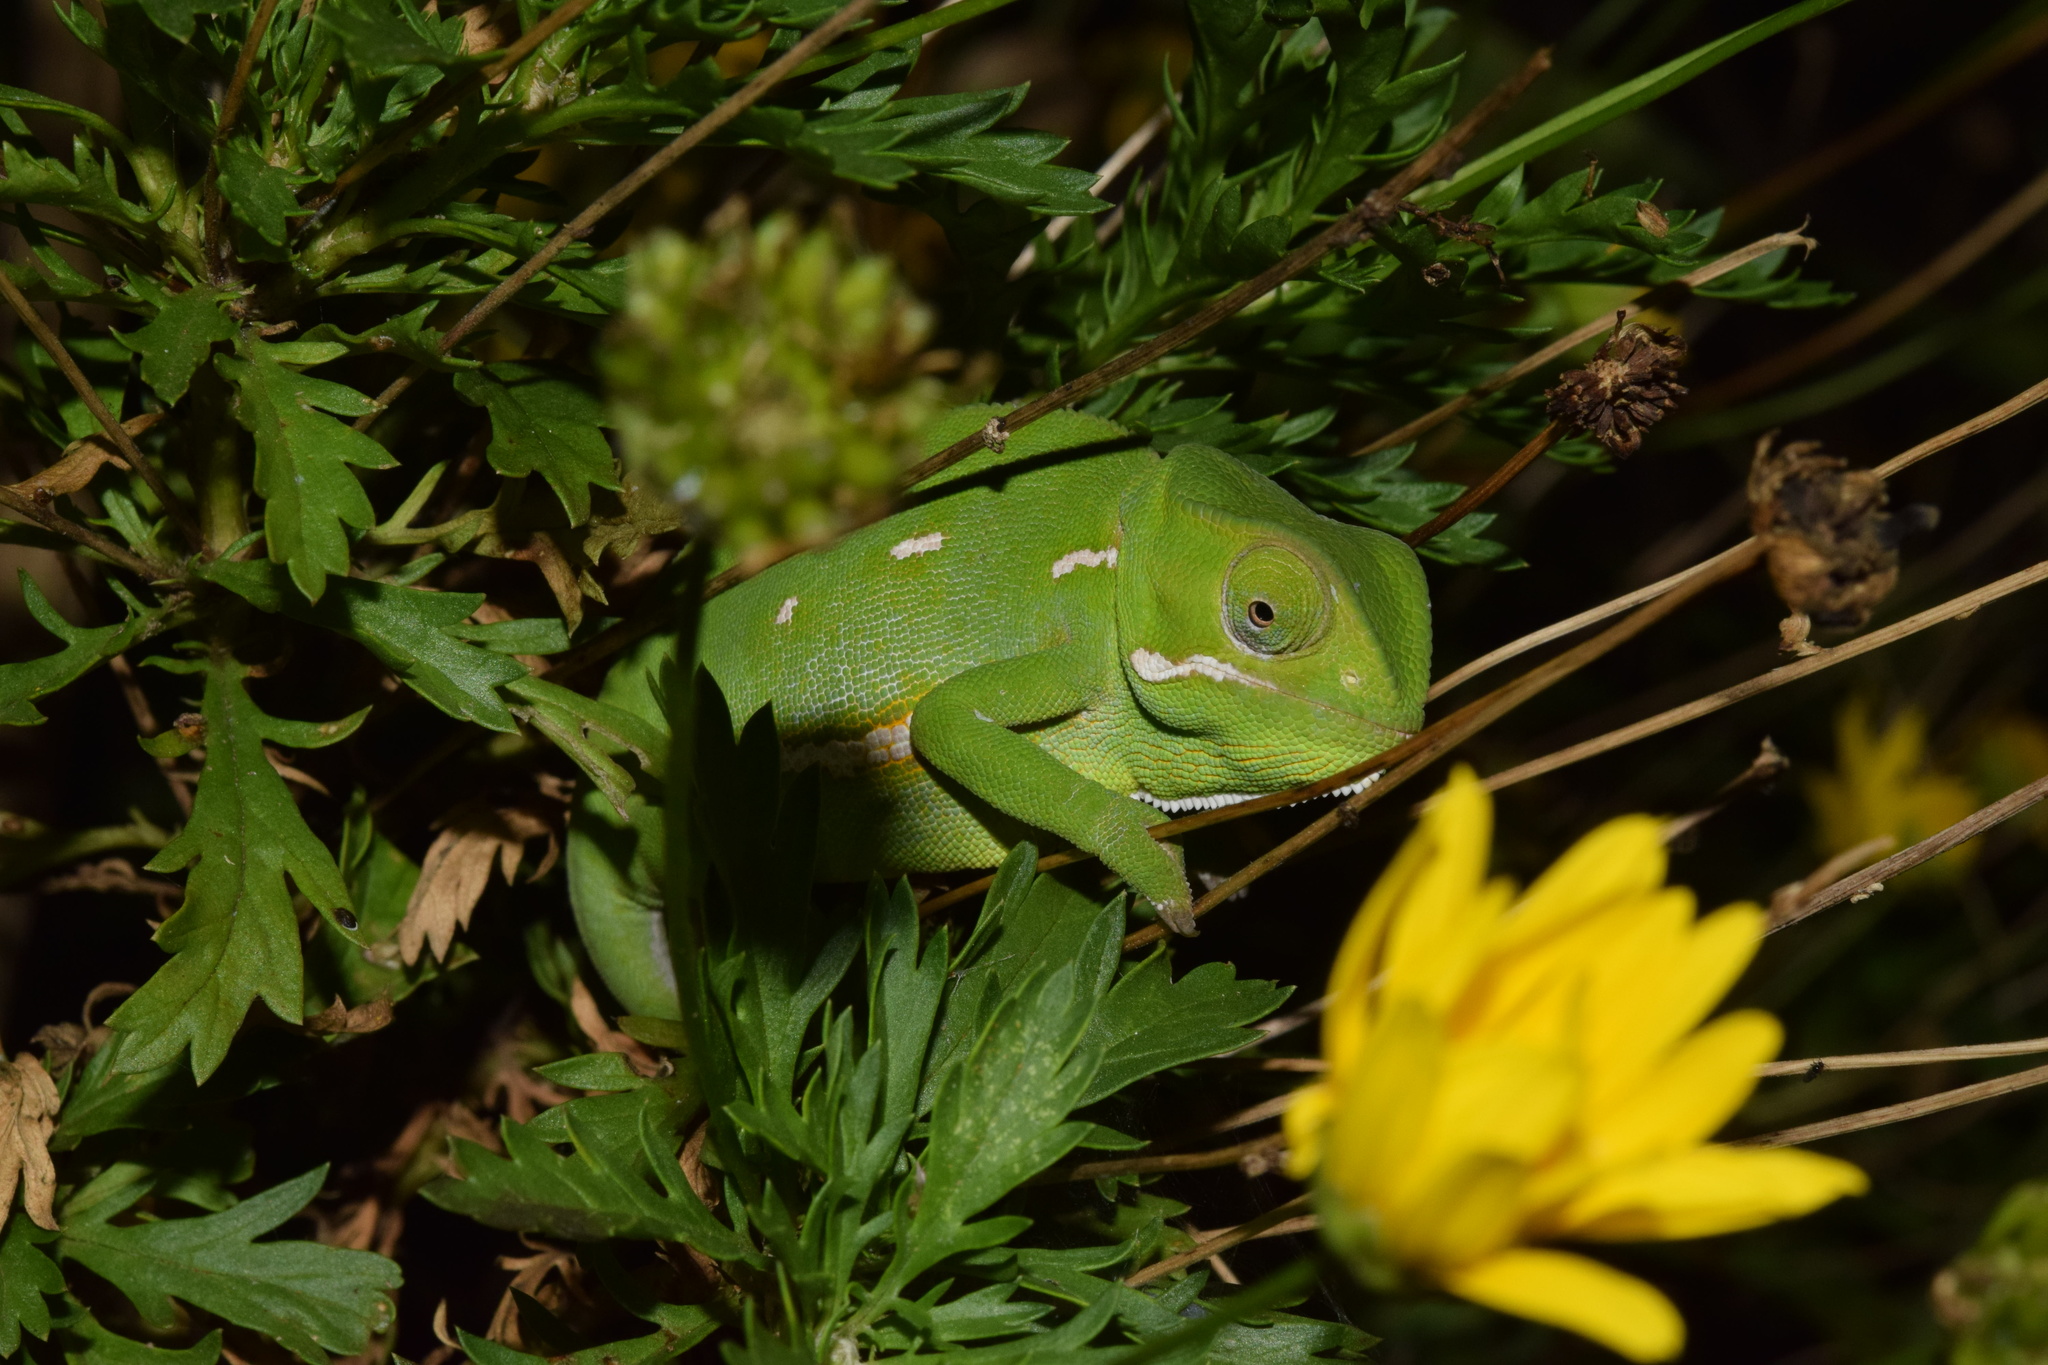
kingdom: Animalia
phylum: Chordata
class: Squamata
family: Chamaeleonidae
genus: Chamaeleo
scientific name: Chamaeleo dilepis
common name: Flapneck chameleon
